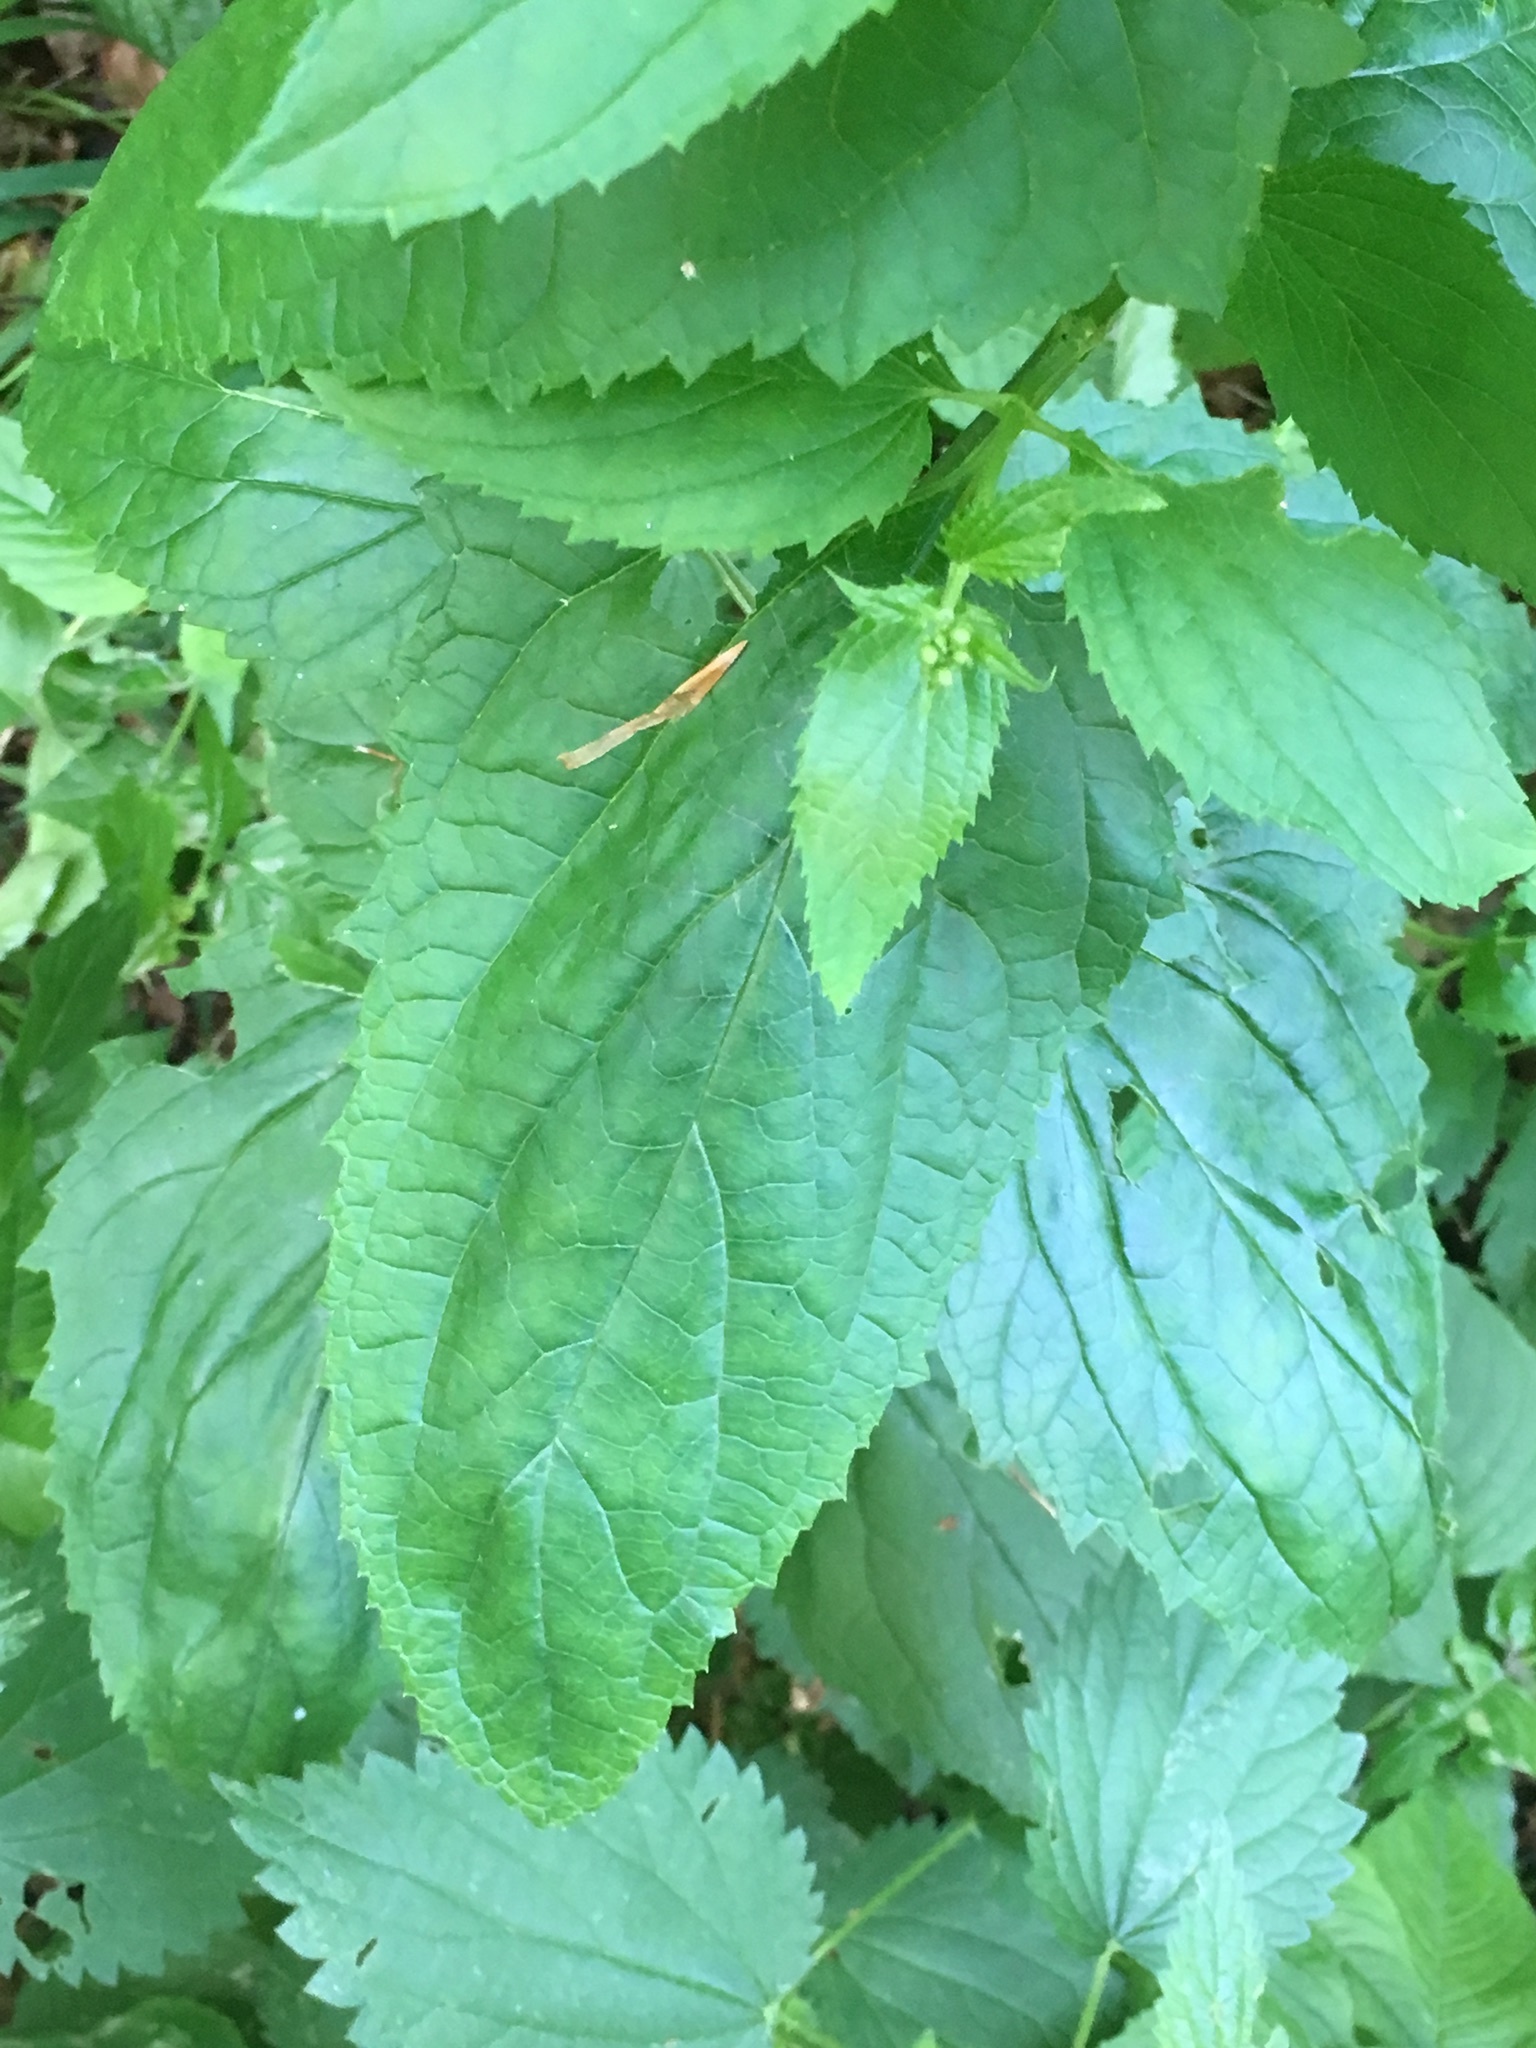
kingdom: Plantae
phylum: Tracheophyta
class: Magnoliopsida
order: Lamiales
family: Scrophulariaceae
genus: Scrophularia
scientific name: Scrophularia nodosa
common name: Common figwort
